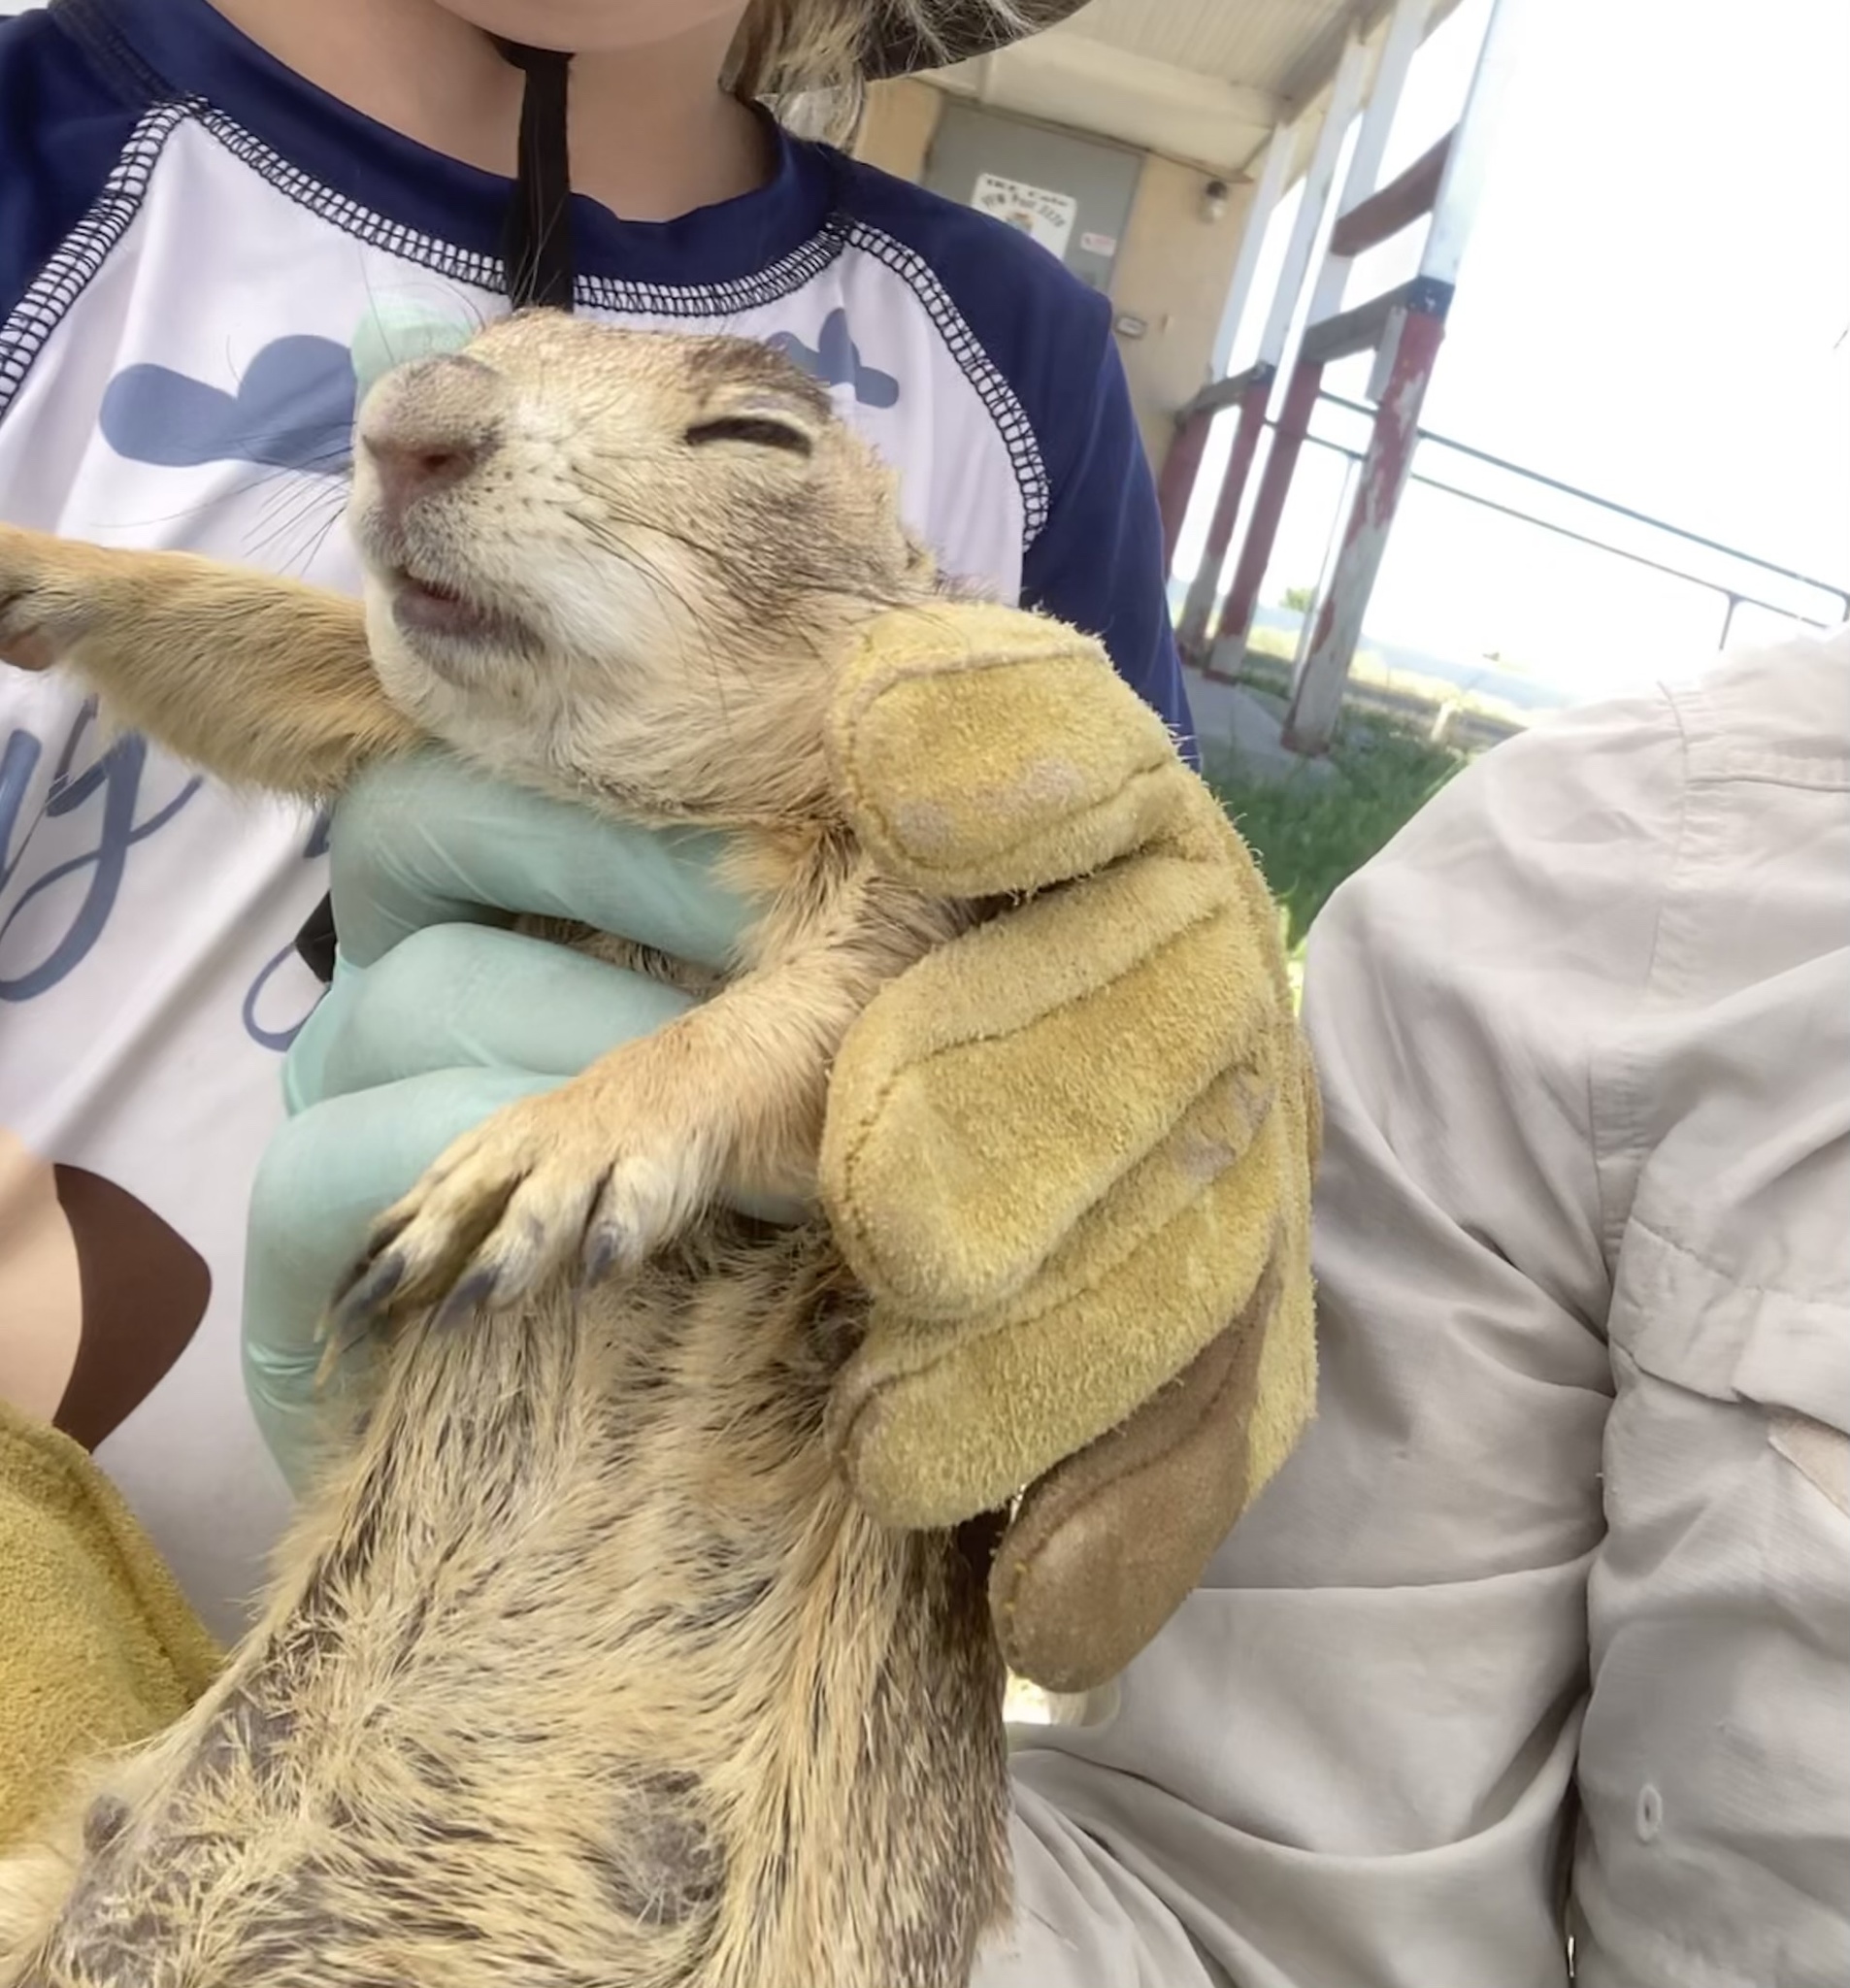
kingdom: Animalia
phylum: Chordata
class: Mammalia
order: Rodentia
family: Sciuridae
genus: Cynomys
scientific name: Cynomys gunnisoni
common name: Gunnison's prairie dog
